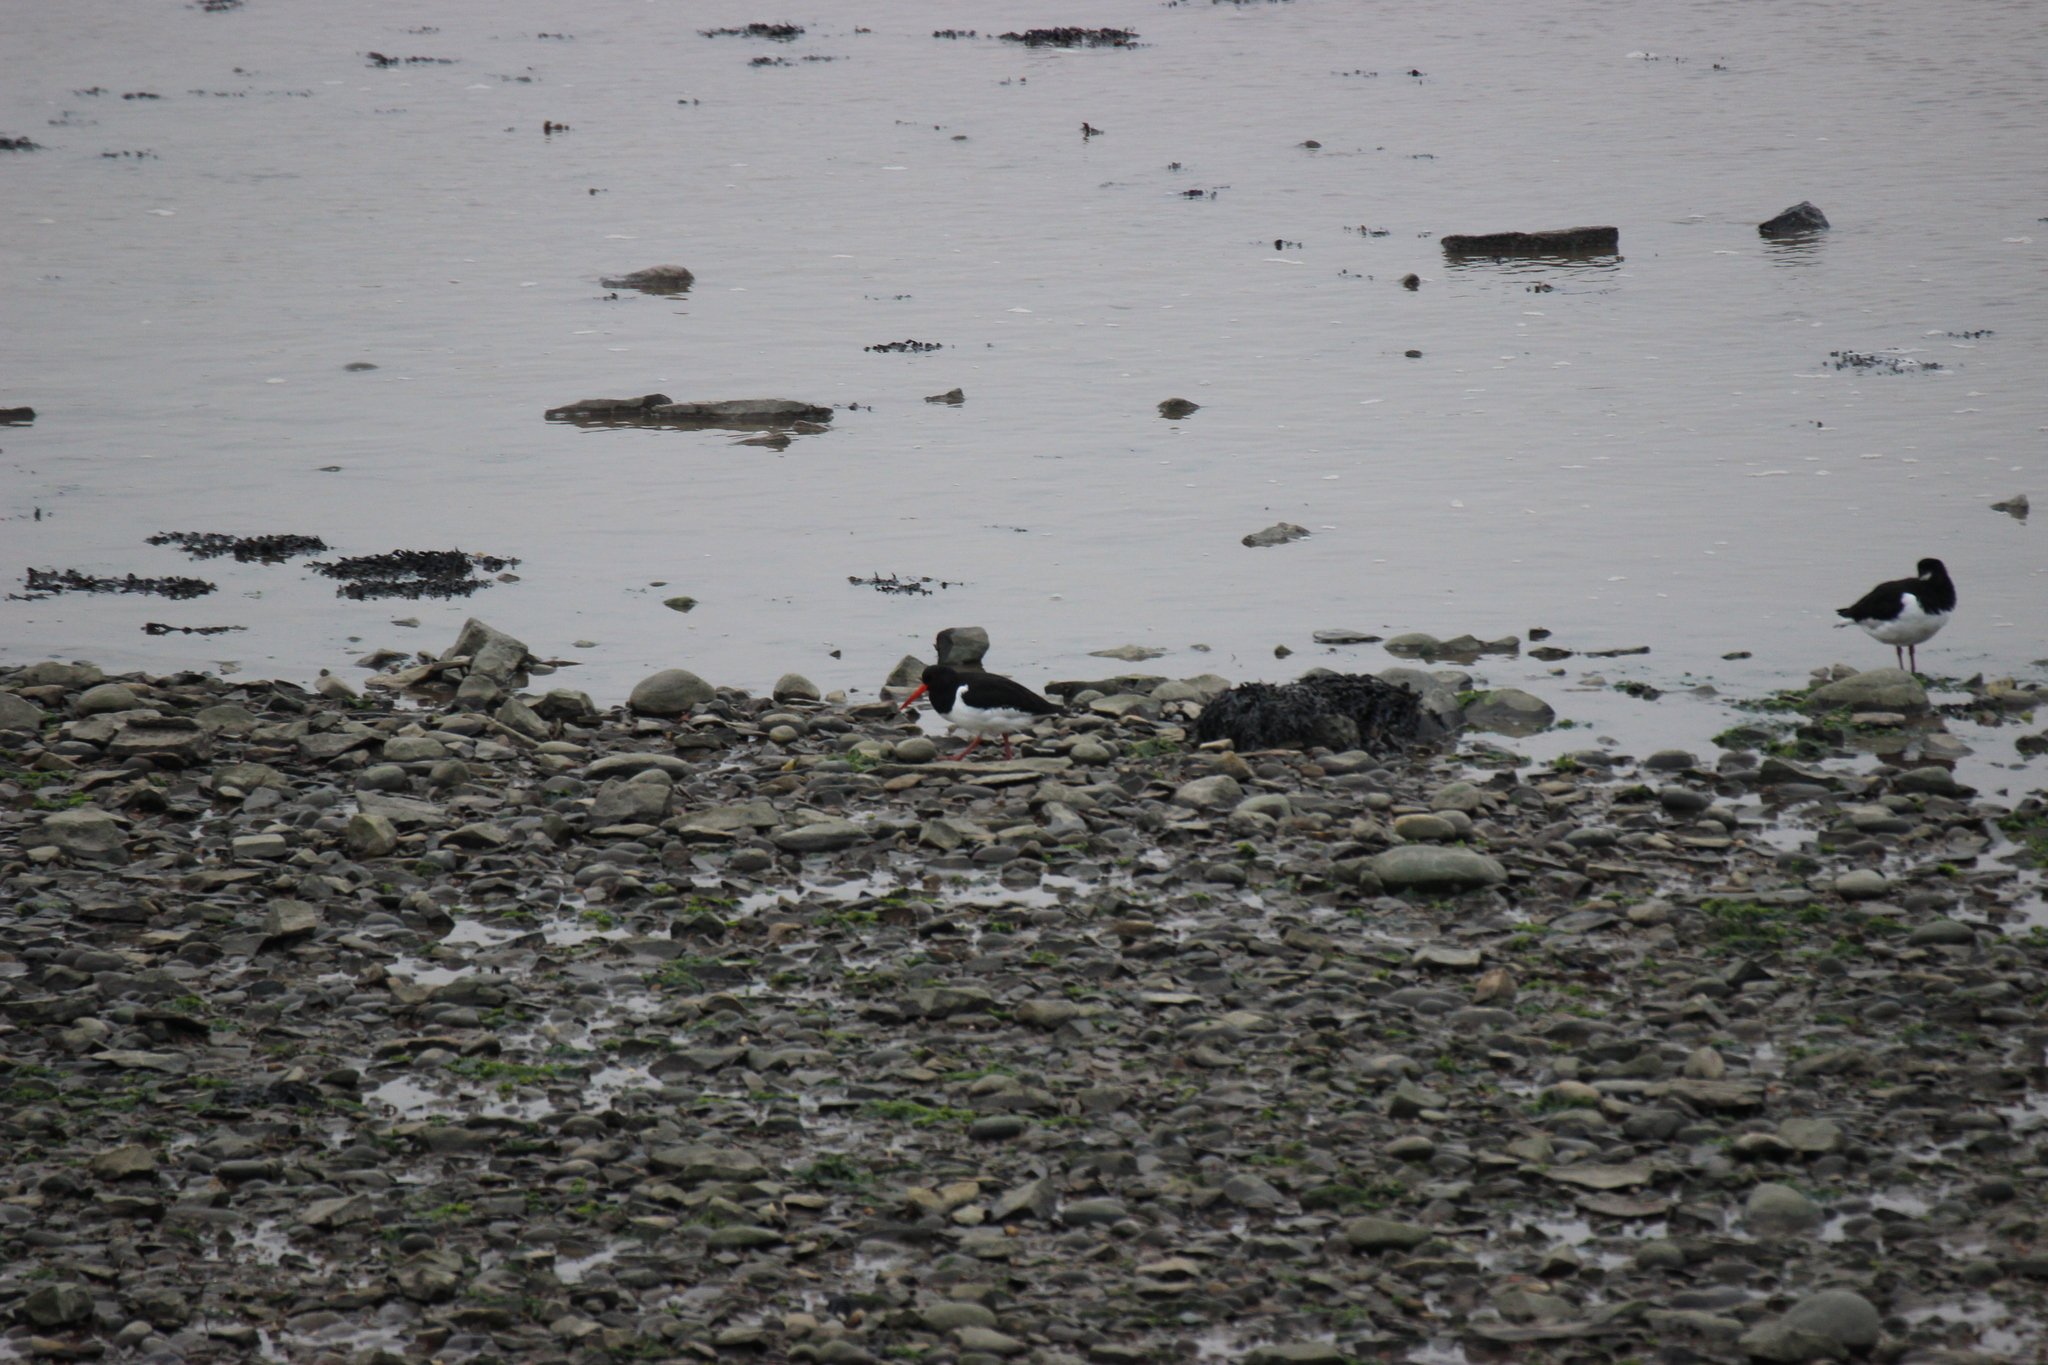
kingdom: Animalia
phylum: Chordata
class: Aves
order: Charadriiformes
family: Haematopodidae
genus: Haematopus
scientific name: Haematopus ostralegus
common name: Eurasian oystercatcher
